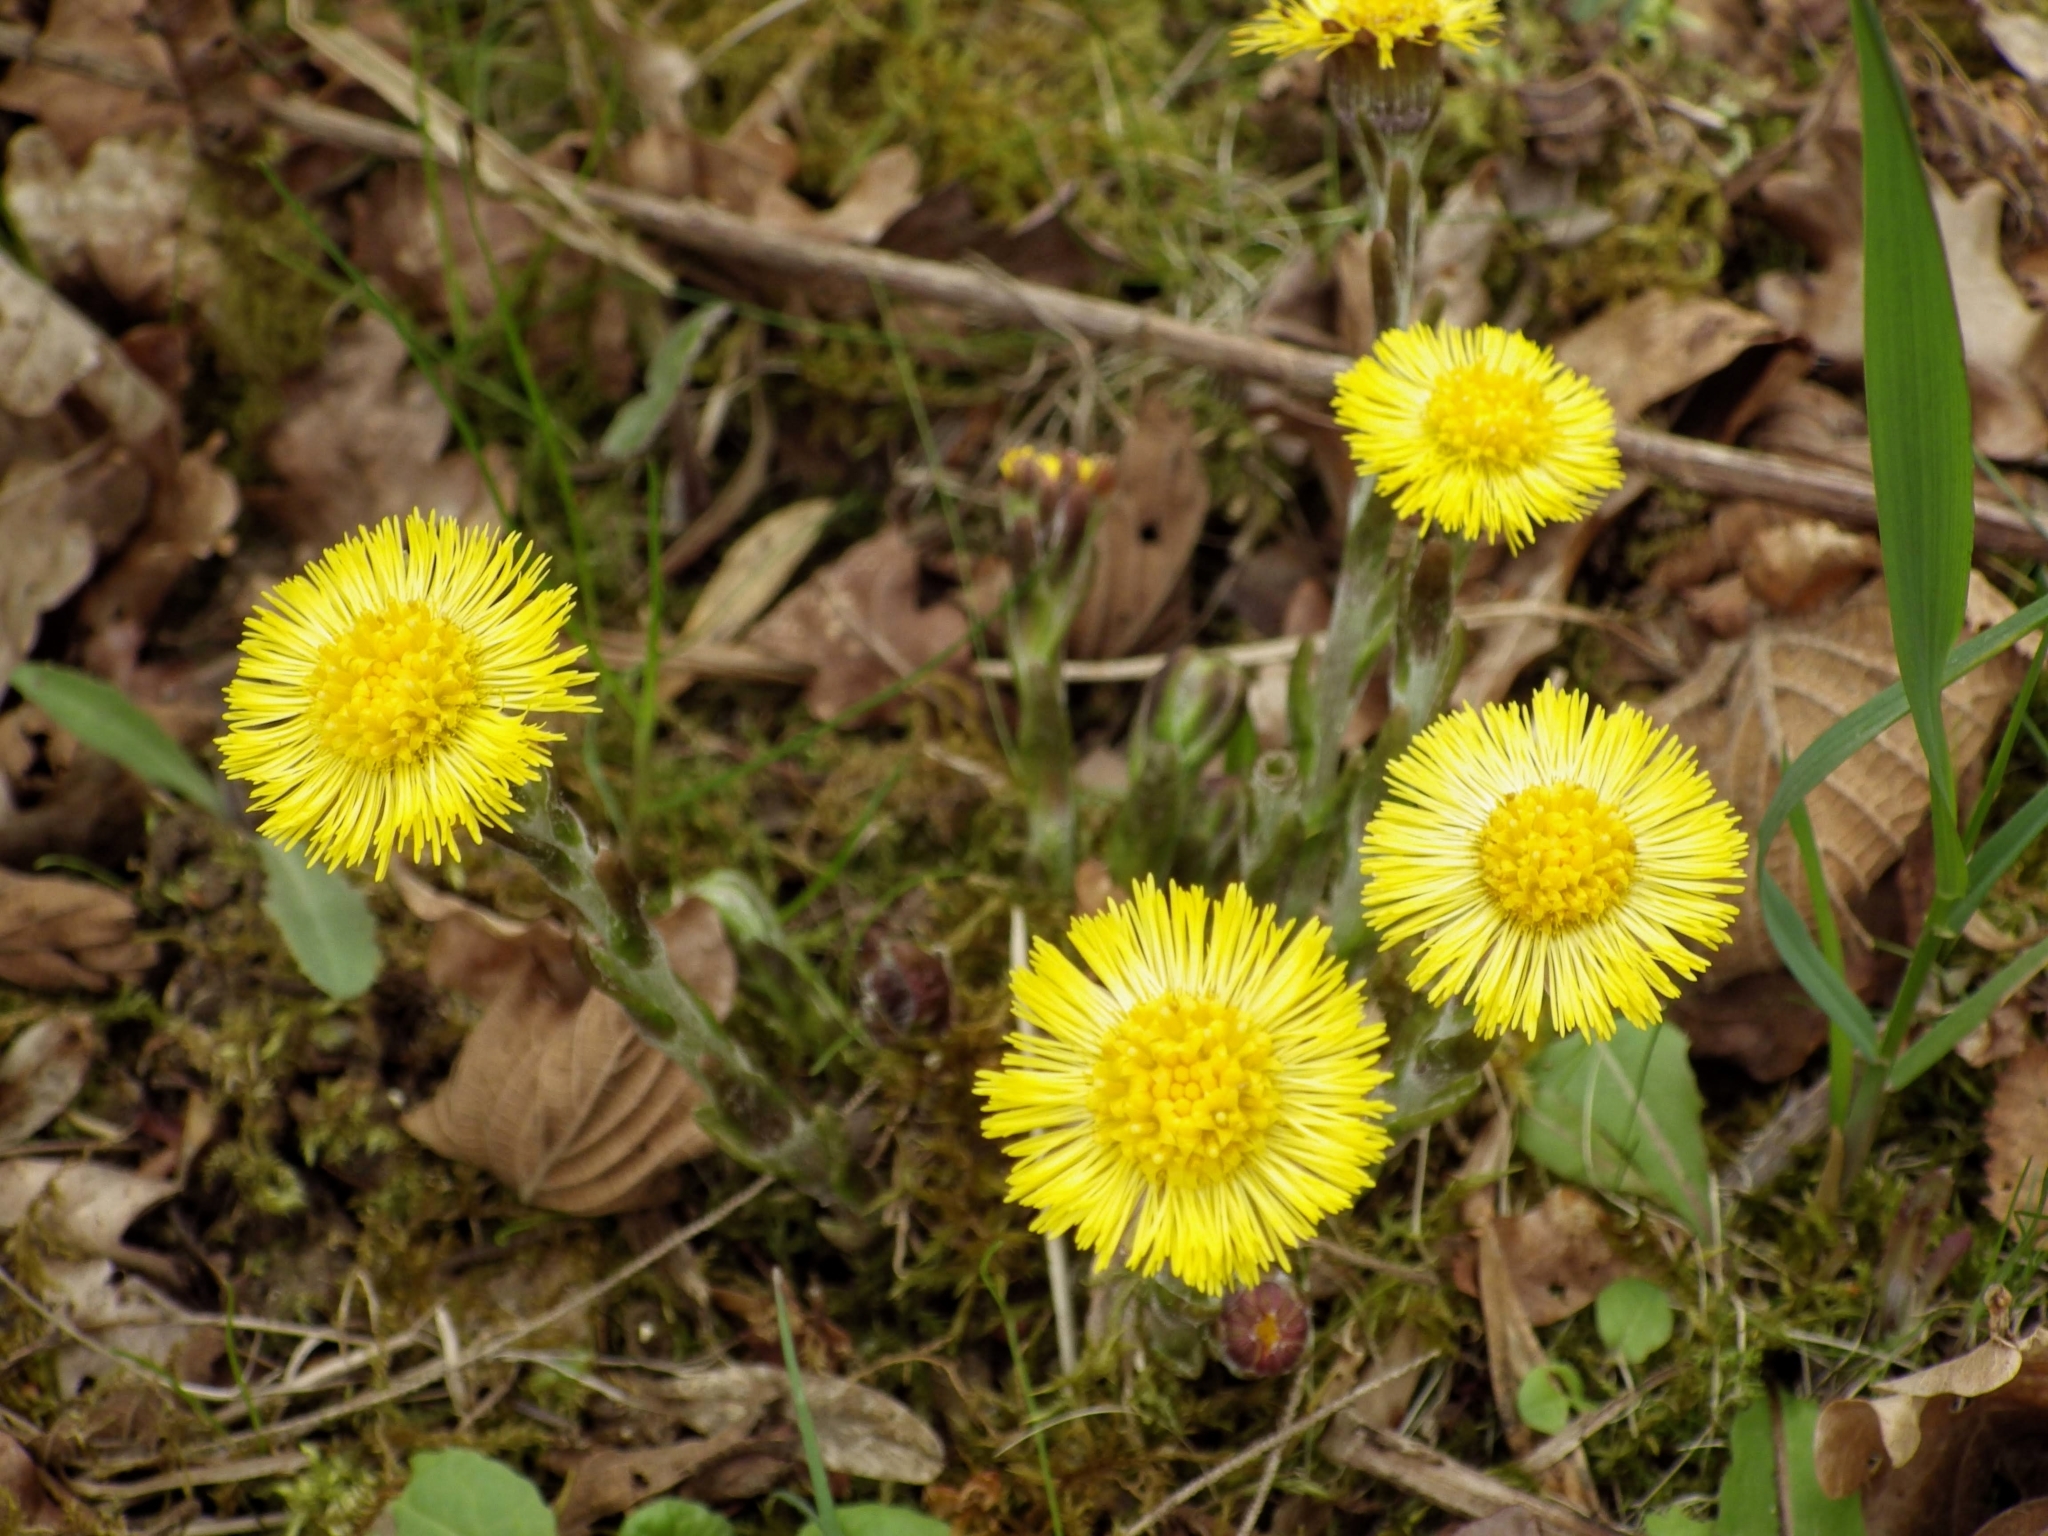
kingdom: Plantae
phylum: Tracheophyta
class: Magnoliopsida
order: Asterales
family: Asteraceae
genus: Tussilago
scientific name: Tussilago farfara
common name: Coltsfoot
